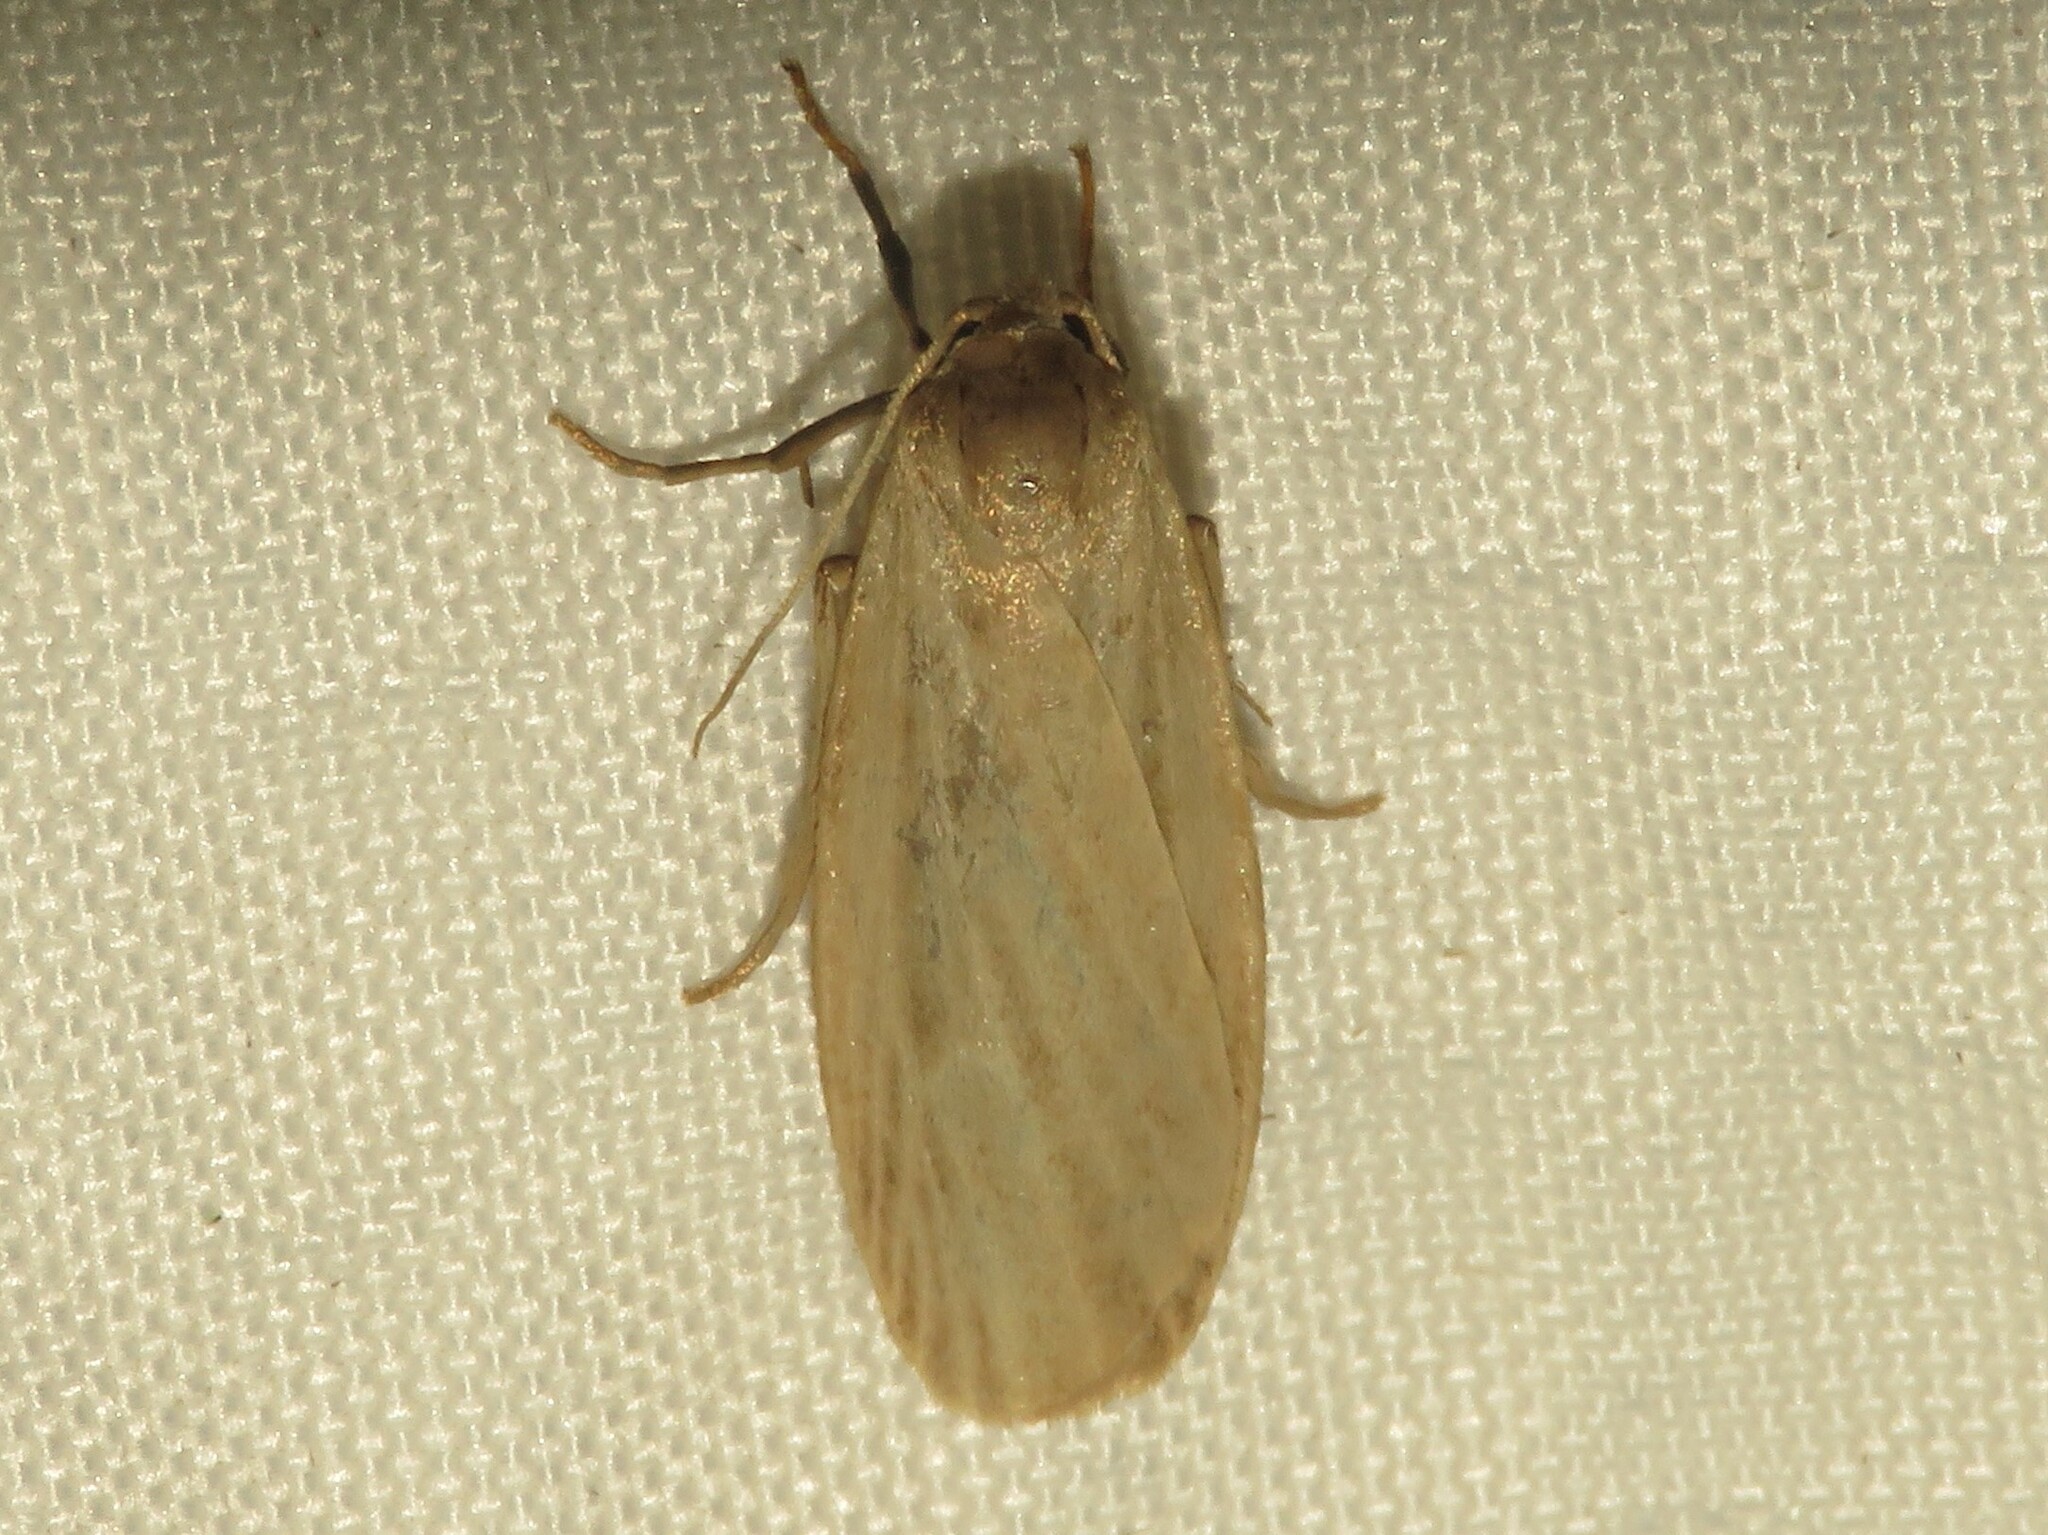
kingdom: Animalia
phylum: Arthropoda
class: Insecta
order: Lepidoptera
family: Erebidae
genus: Crambidia
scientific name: Crambidia pallida
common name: Pale lichen moth
